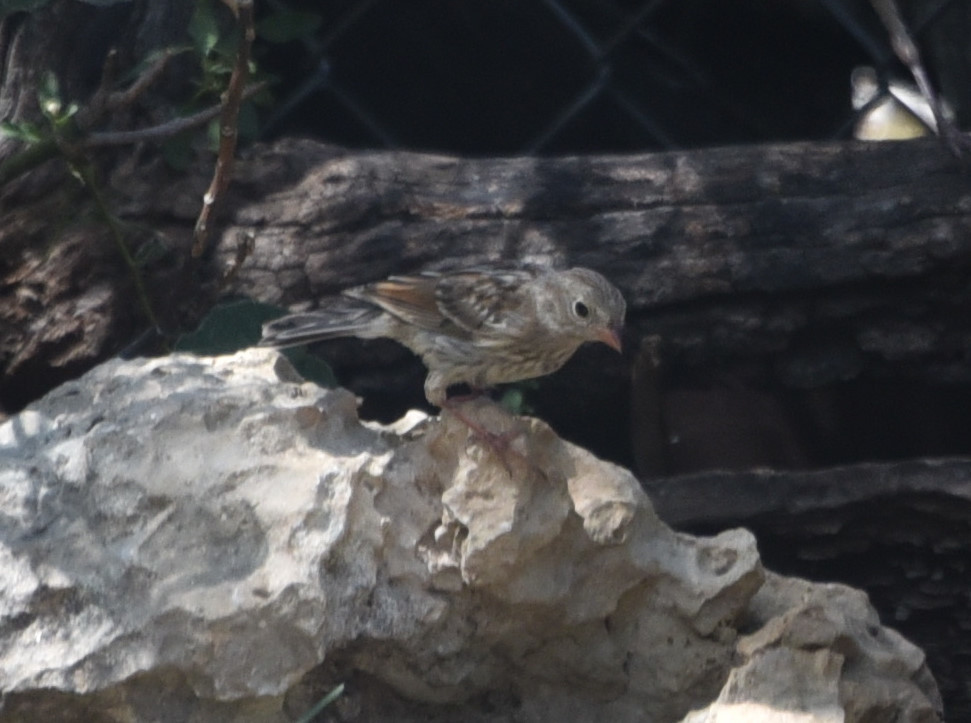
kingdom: Animalia
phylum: Chordata
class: Aves
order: Passeriformes
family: Passerellidae
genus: Spizella
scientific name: Spizella pusilla
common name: Field sparrow
